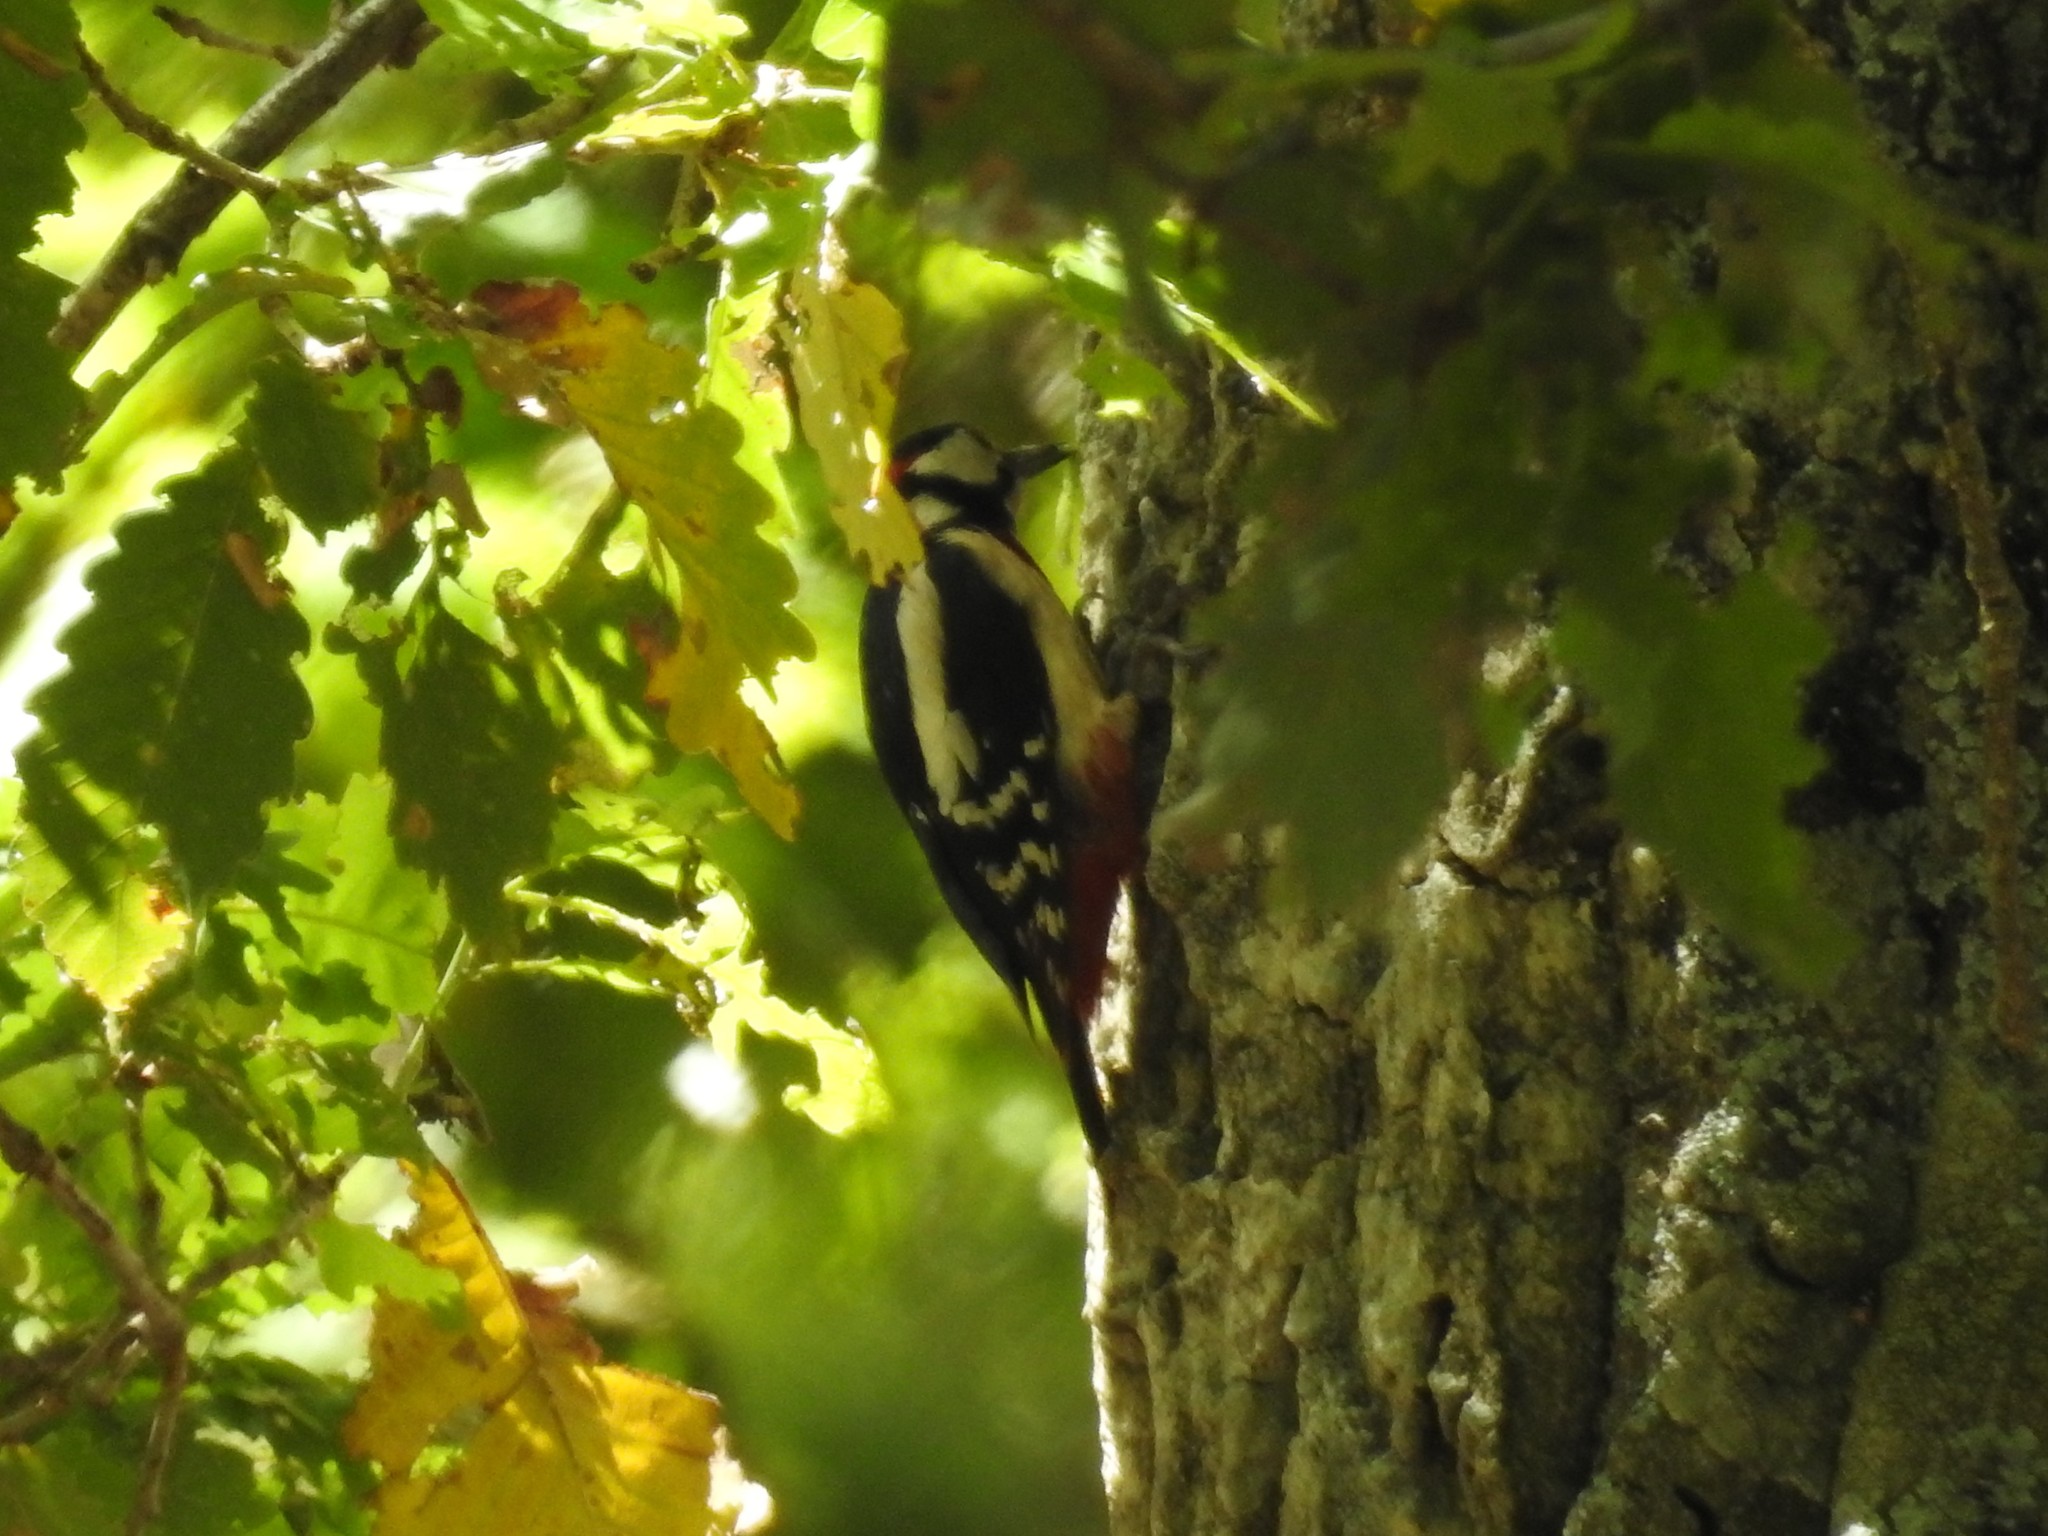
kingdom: Animalia
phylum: Chordata
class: Aves
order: Piciformes
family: Picidae
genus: Dendrocopos
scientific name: Dendrocopos major
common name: Great spotted woodpecker
